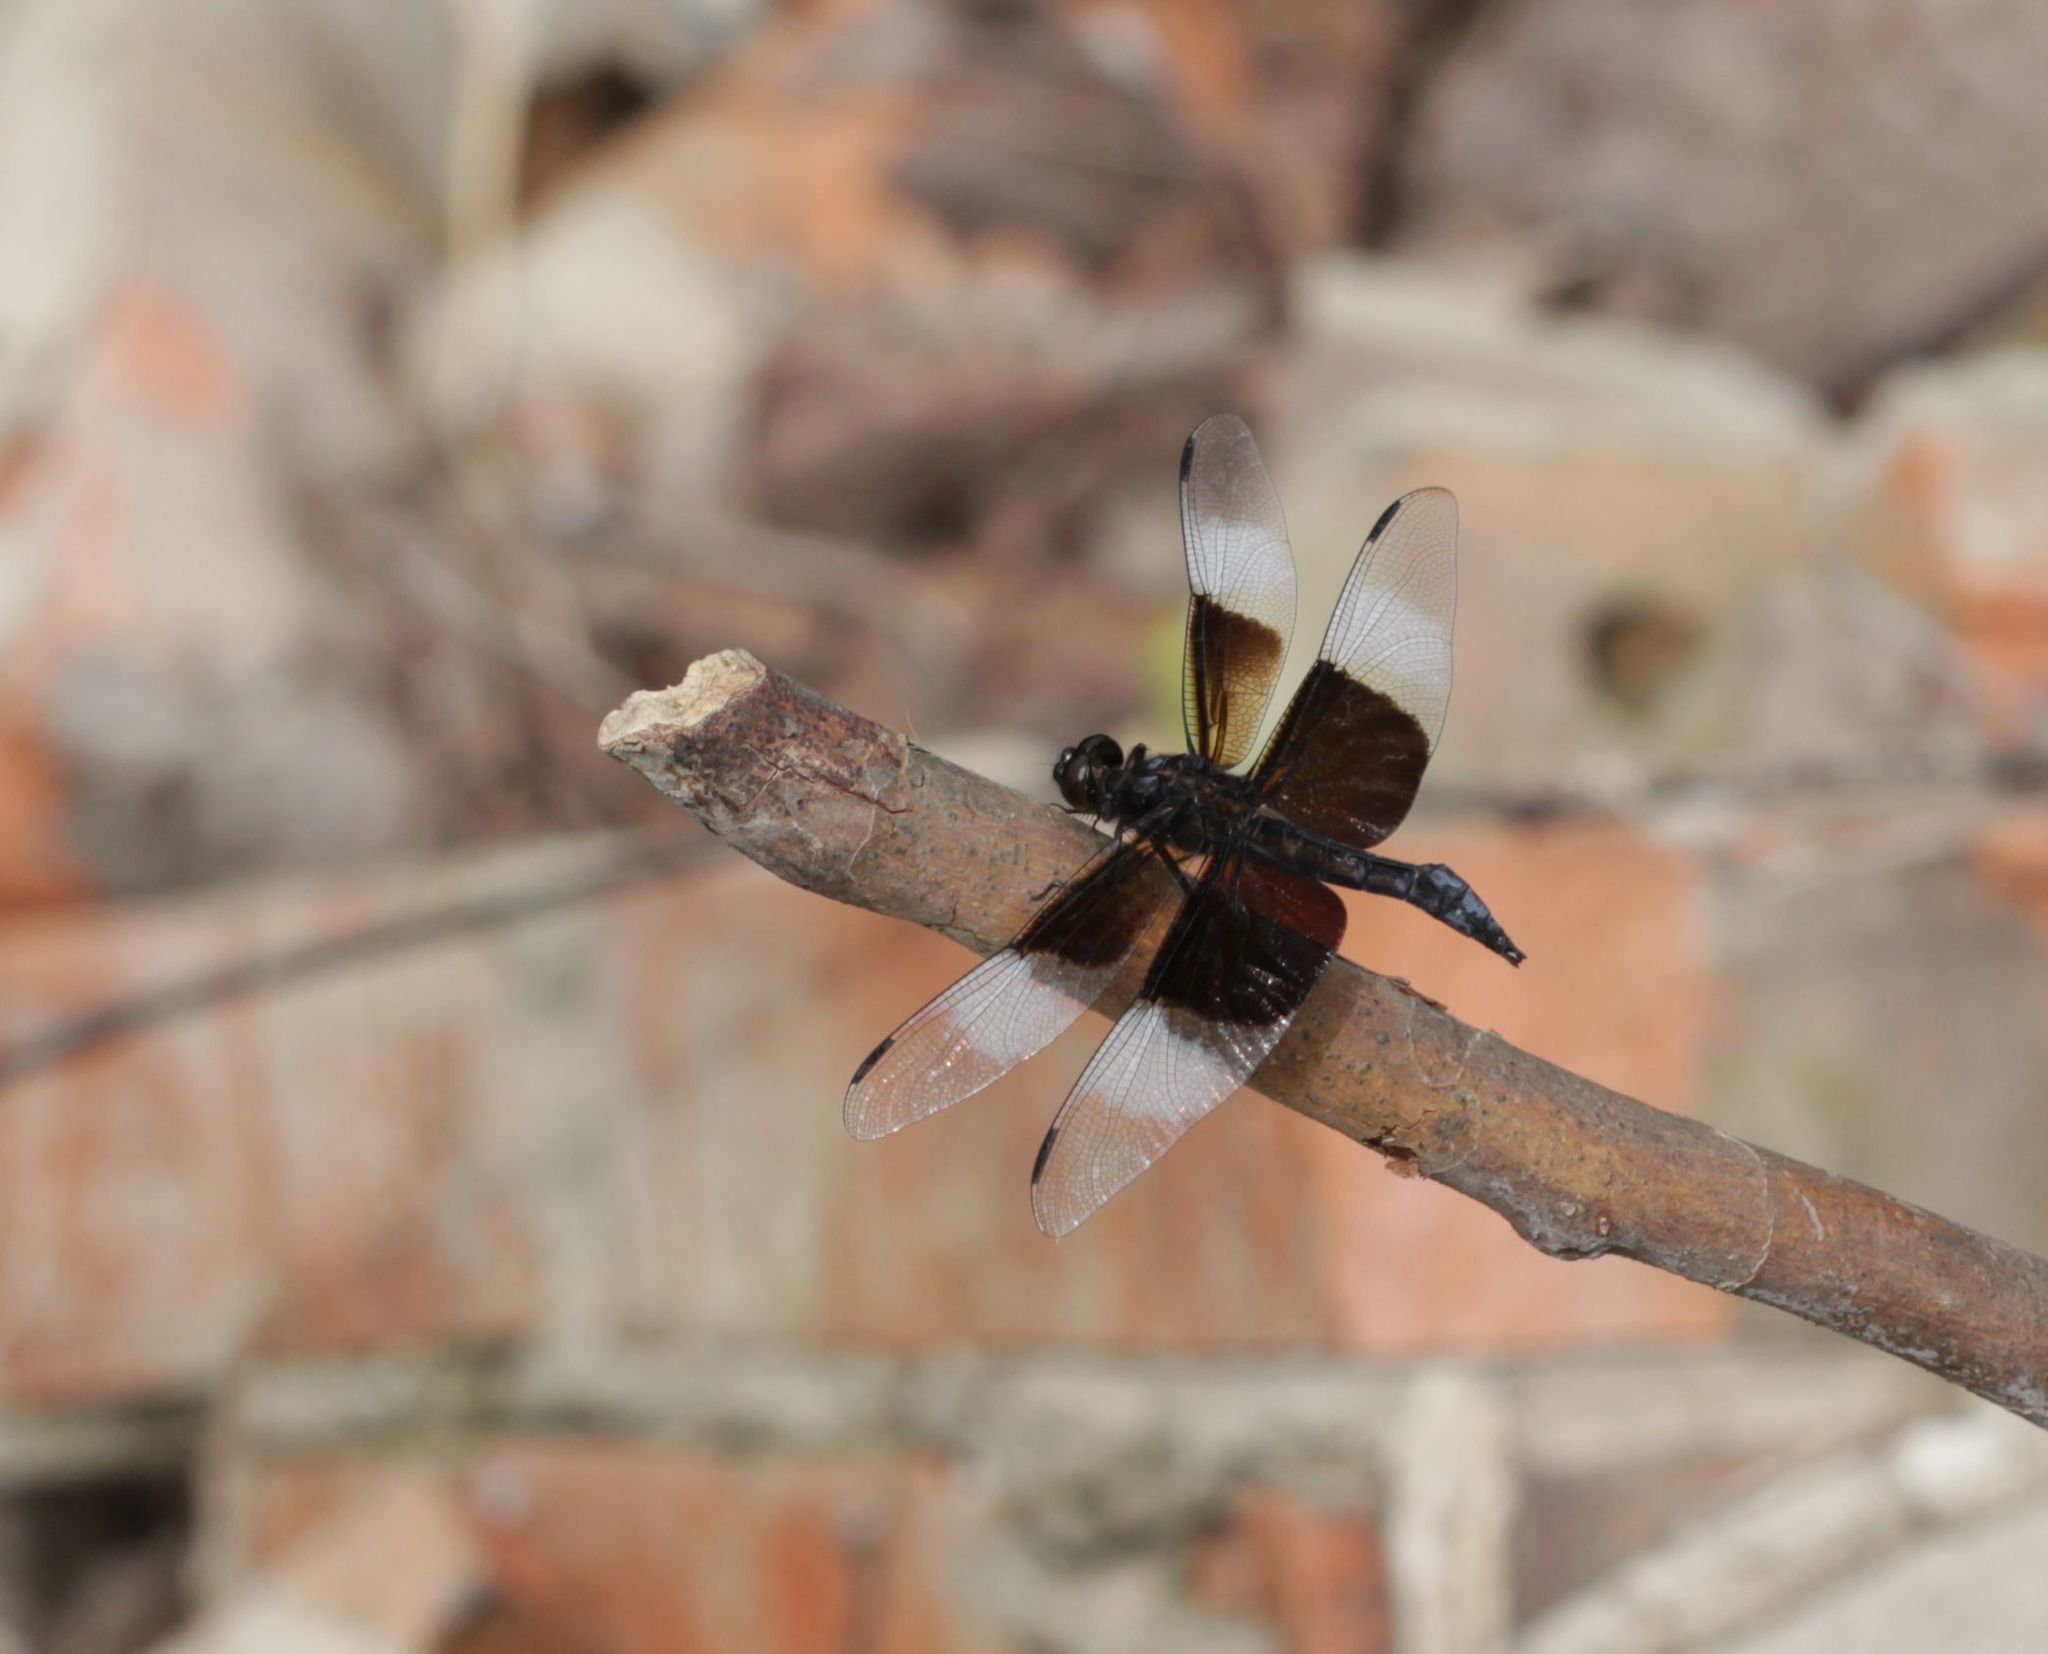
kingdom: Animalia
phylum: Arthropoda
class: Insecta
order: Odonata
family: Libellulidae
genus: Libellula
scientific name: Libellula luctuosa
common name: Widow skimmer
